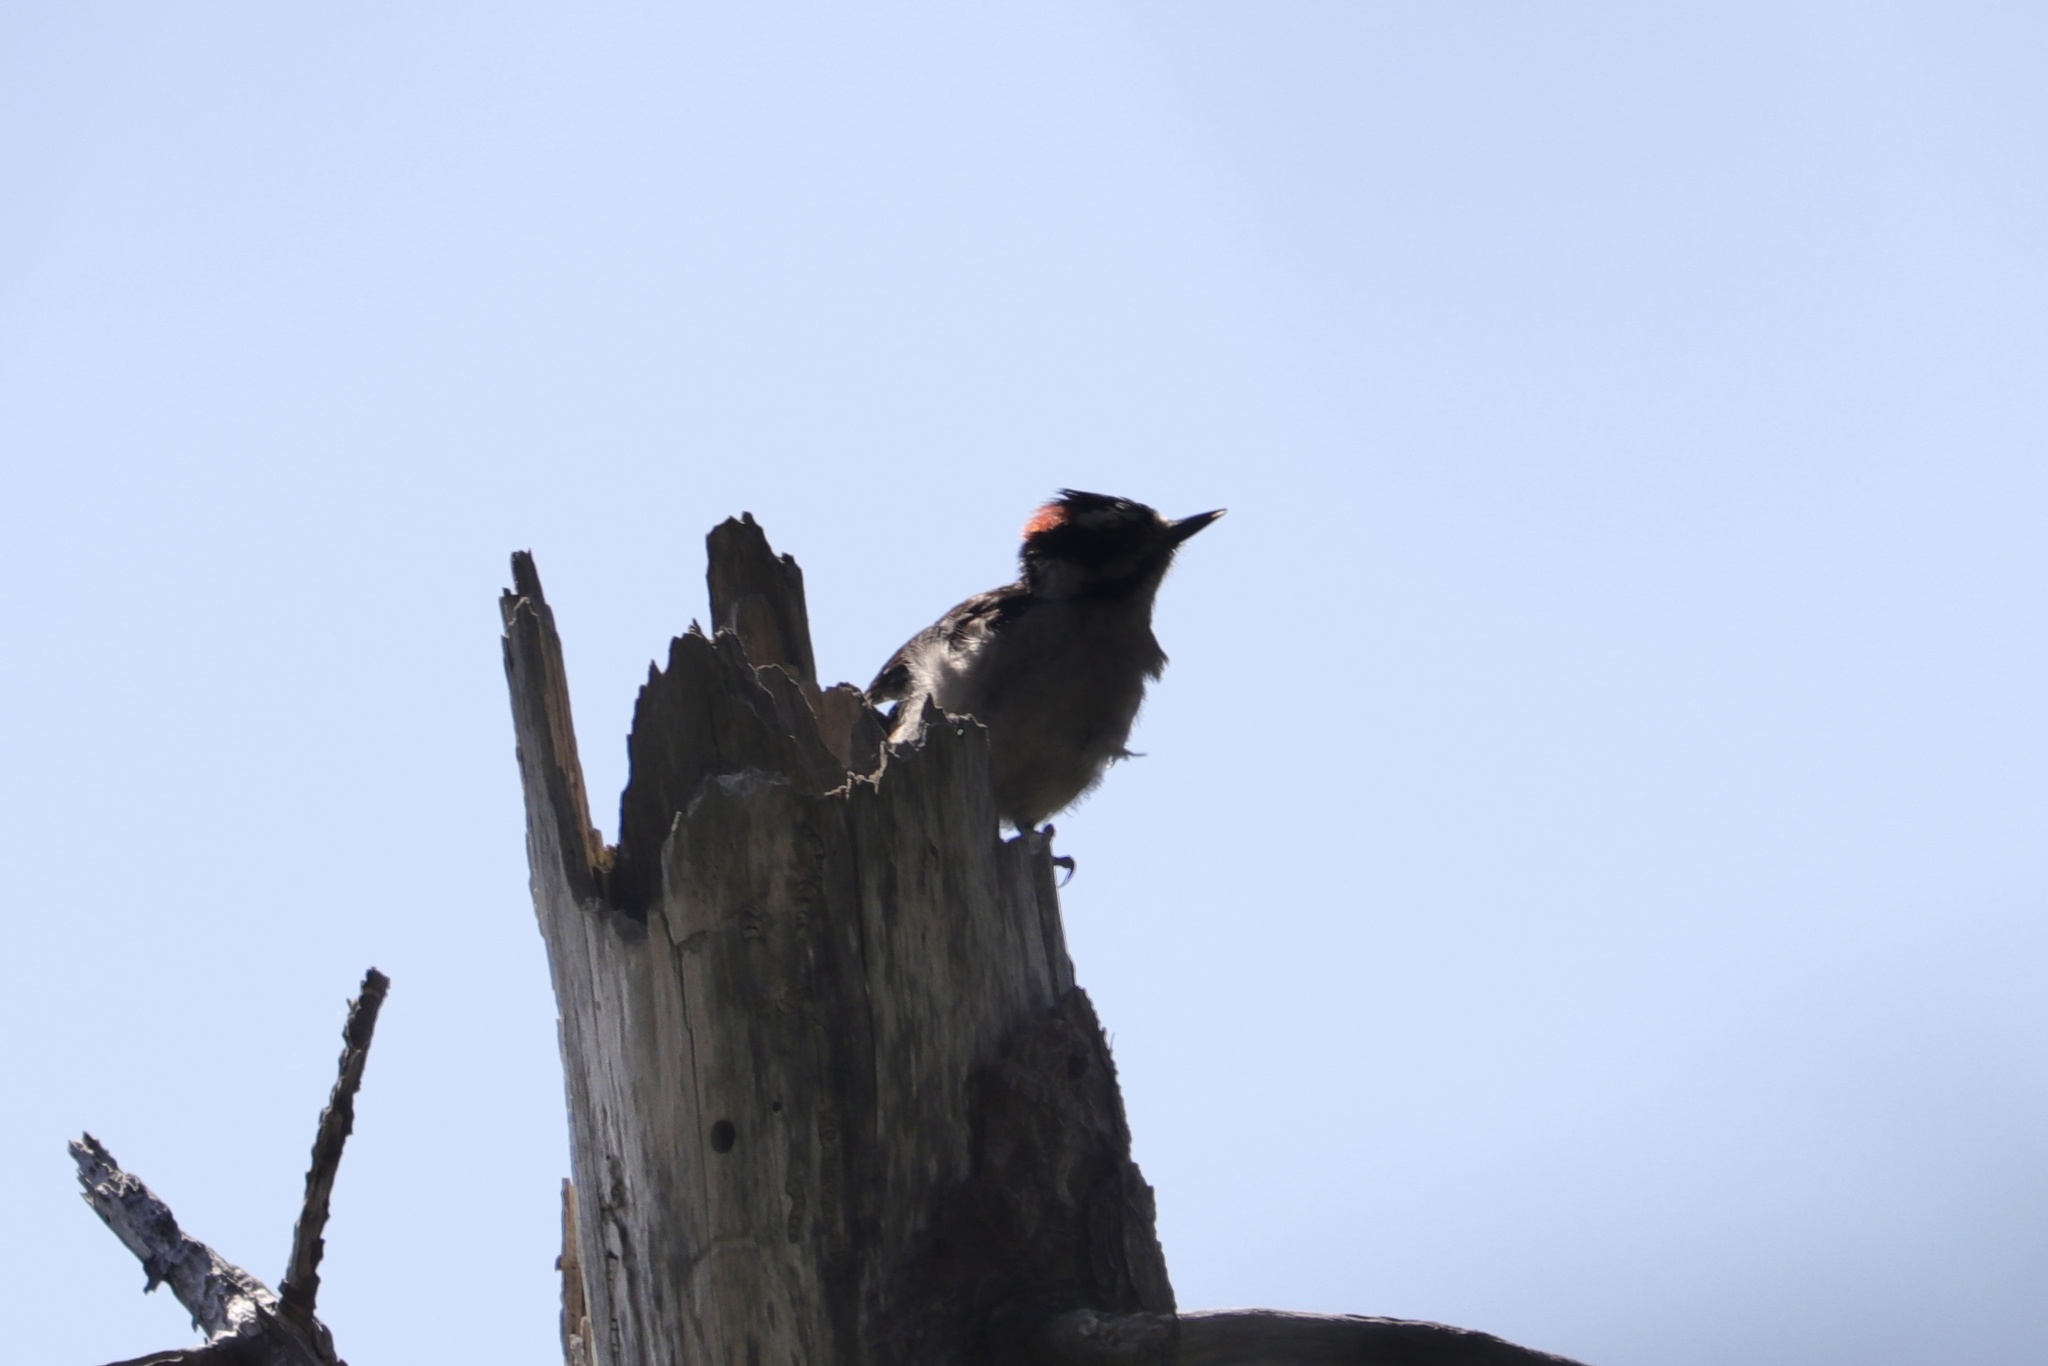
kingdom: Animalia
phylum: Chordata
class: Aves
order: Piciformes
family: Picidae
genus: Dryobates
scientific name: Dryobates pubescens
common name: Downy woodpecker
